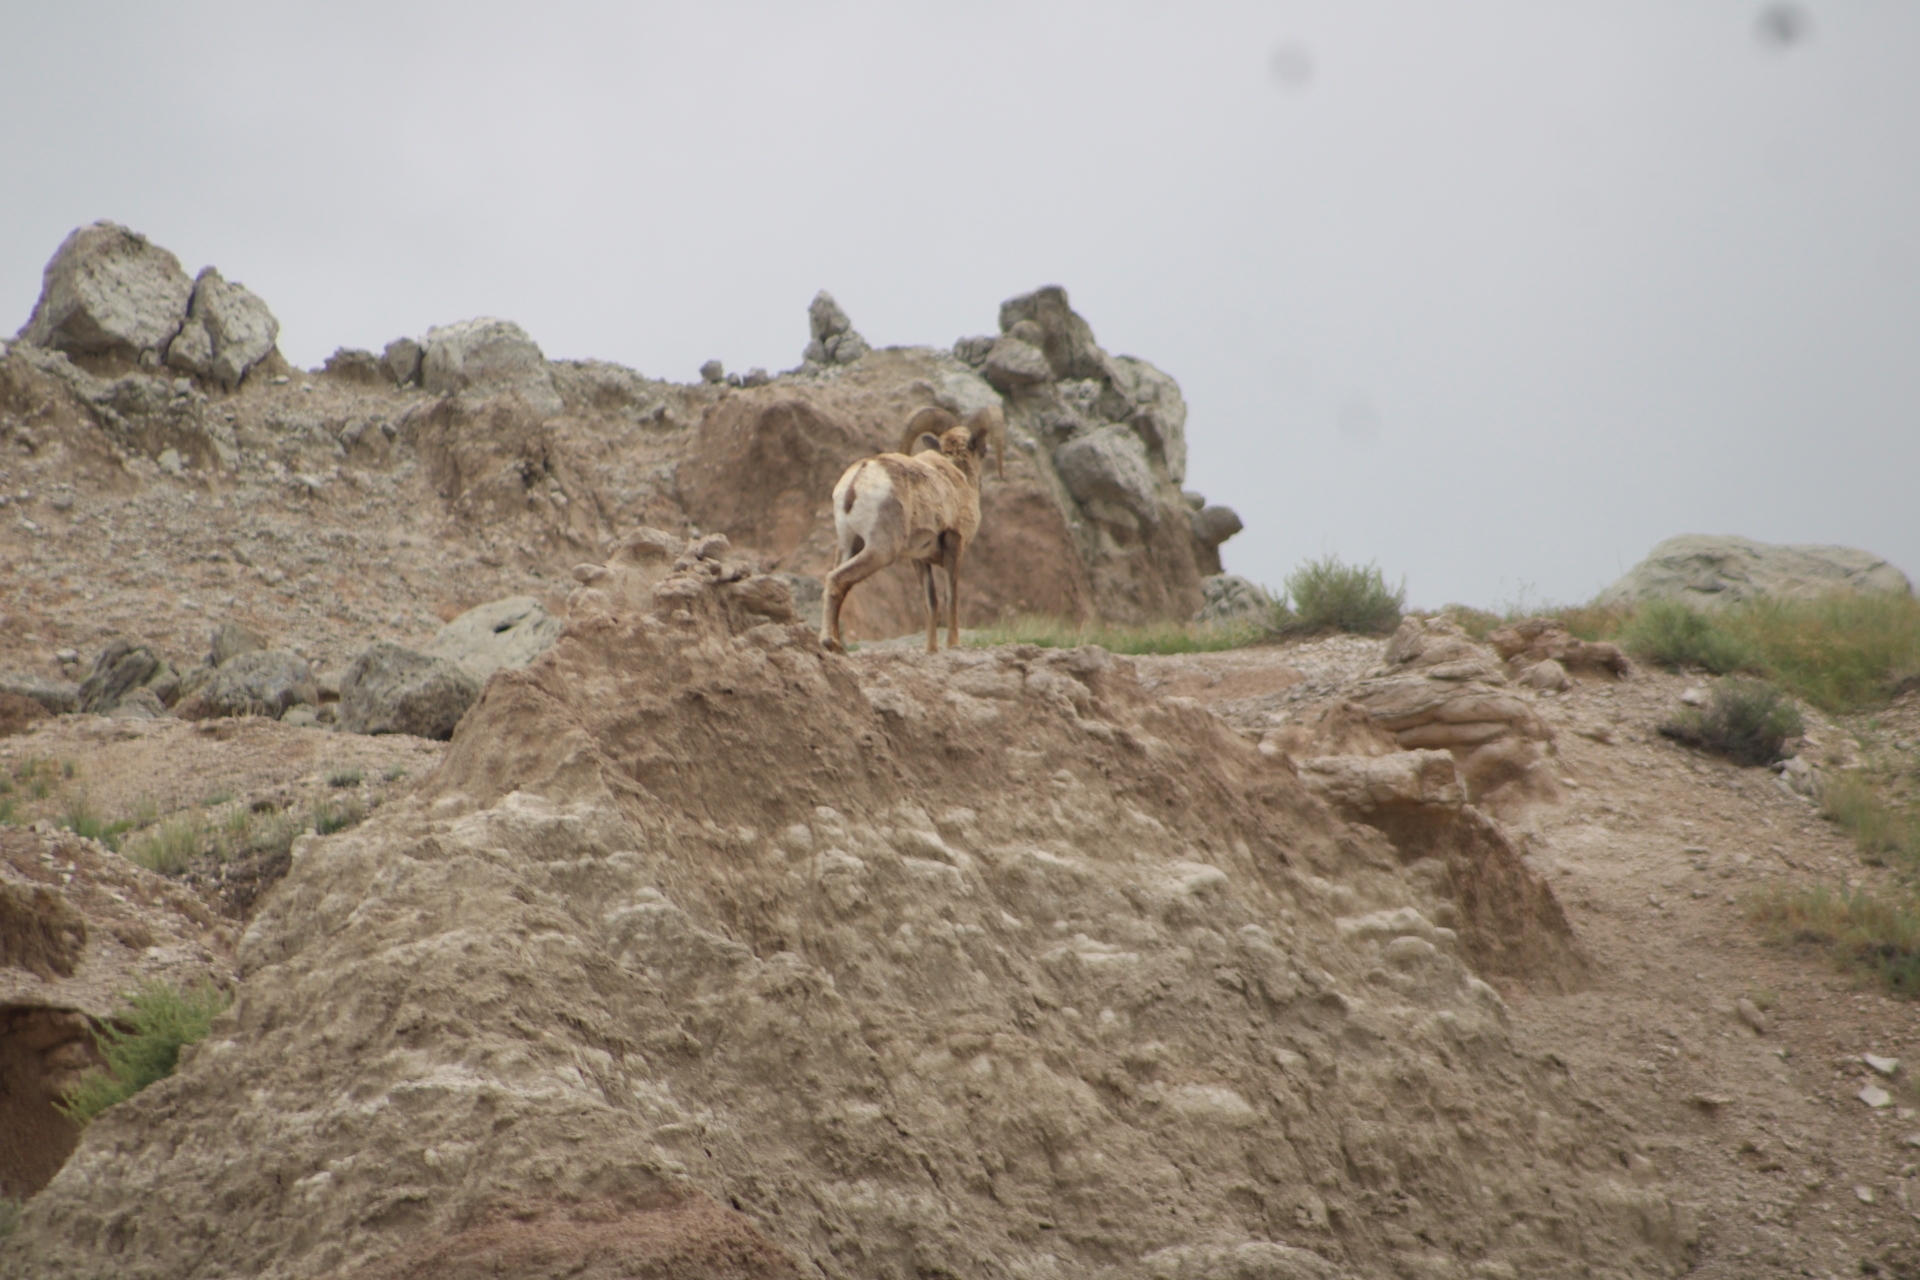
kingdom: Animalia
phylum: Chordata
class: Mammalia
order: Artiodactyla
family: Bovidae
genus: Ovis
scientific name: Ovis canadensis
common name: Bighorn sheep
